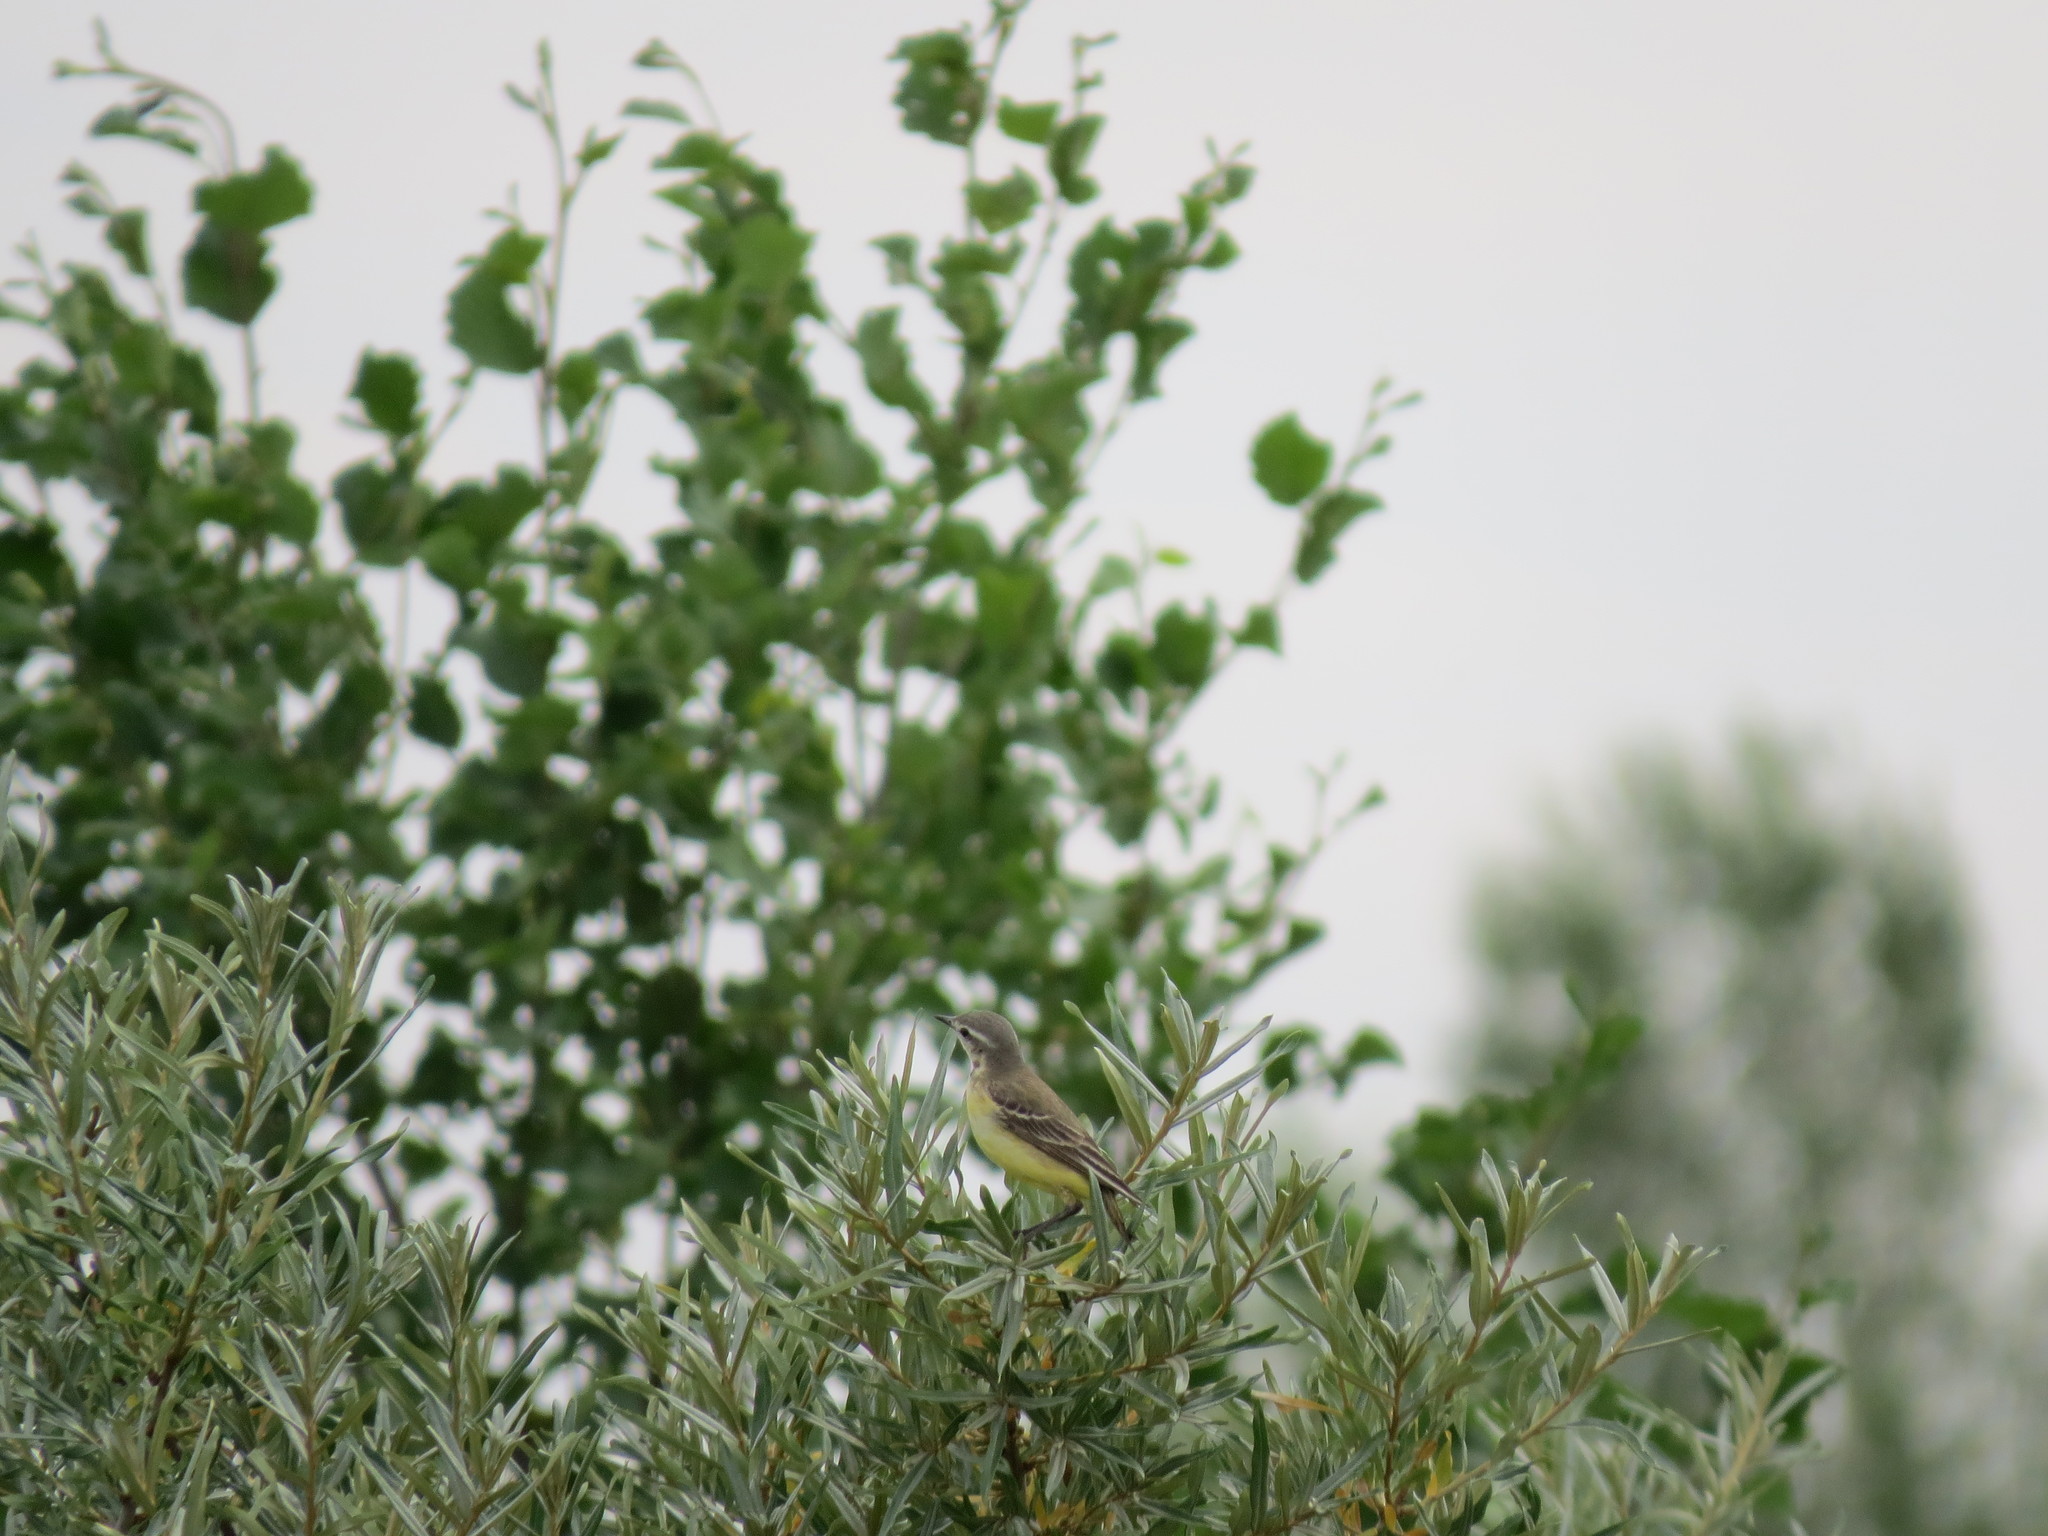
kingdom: Animalia
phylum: Chordata
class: Aves
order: Passeriformes
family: Motacillidae
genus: Motacilla
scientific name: Motacilla flava
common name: Western yellow wagtail
